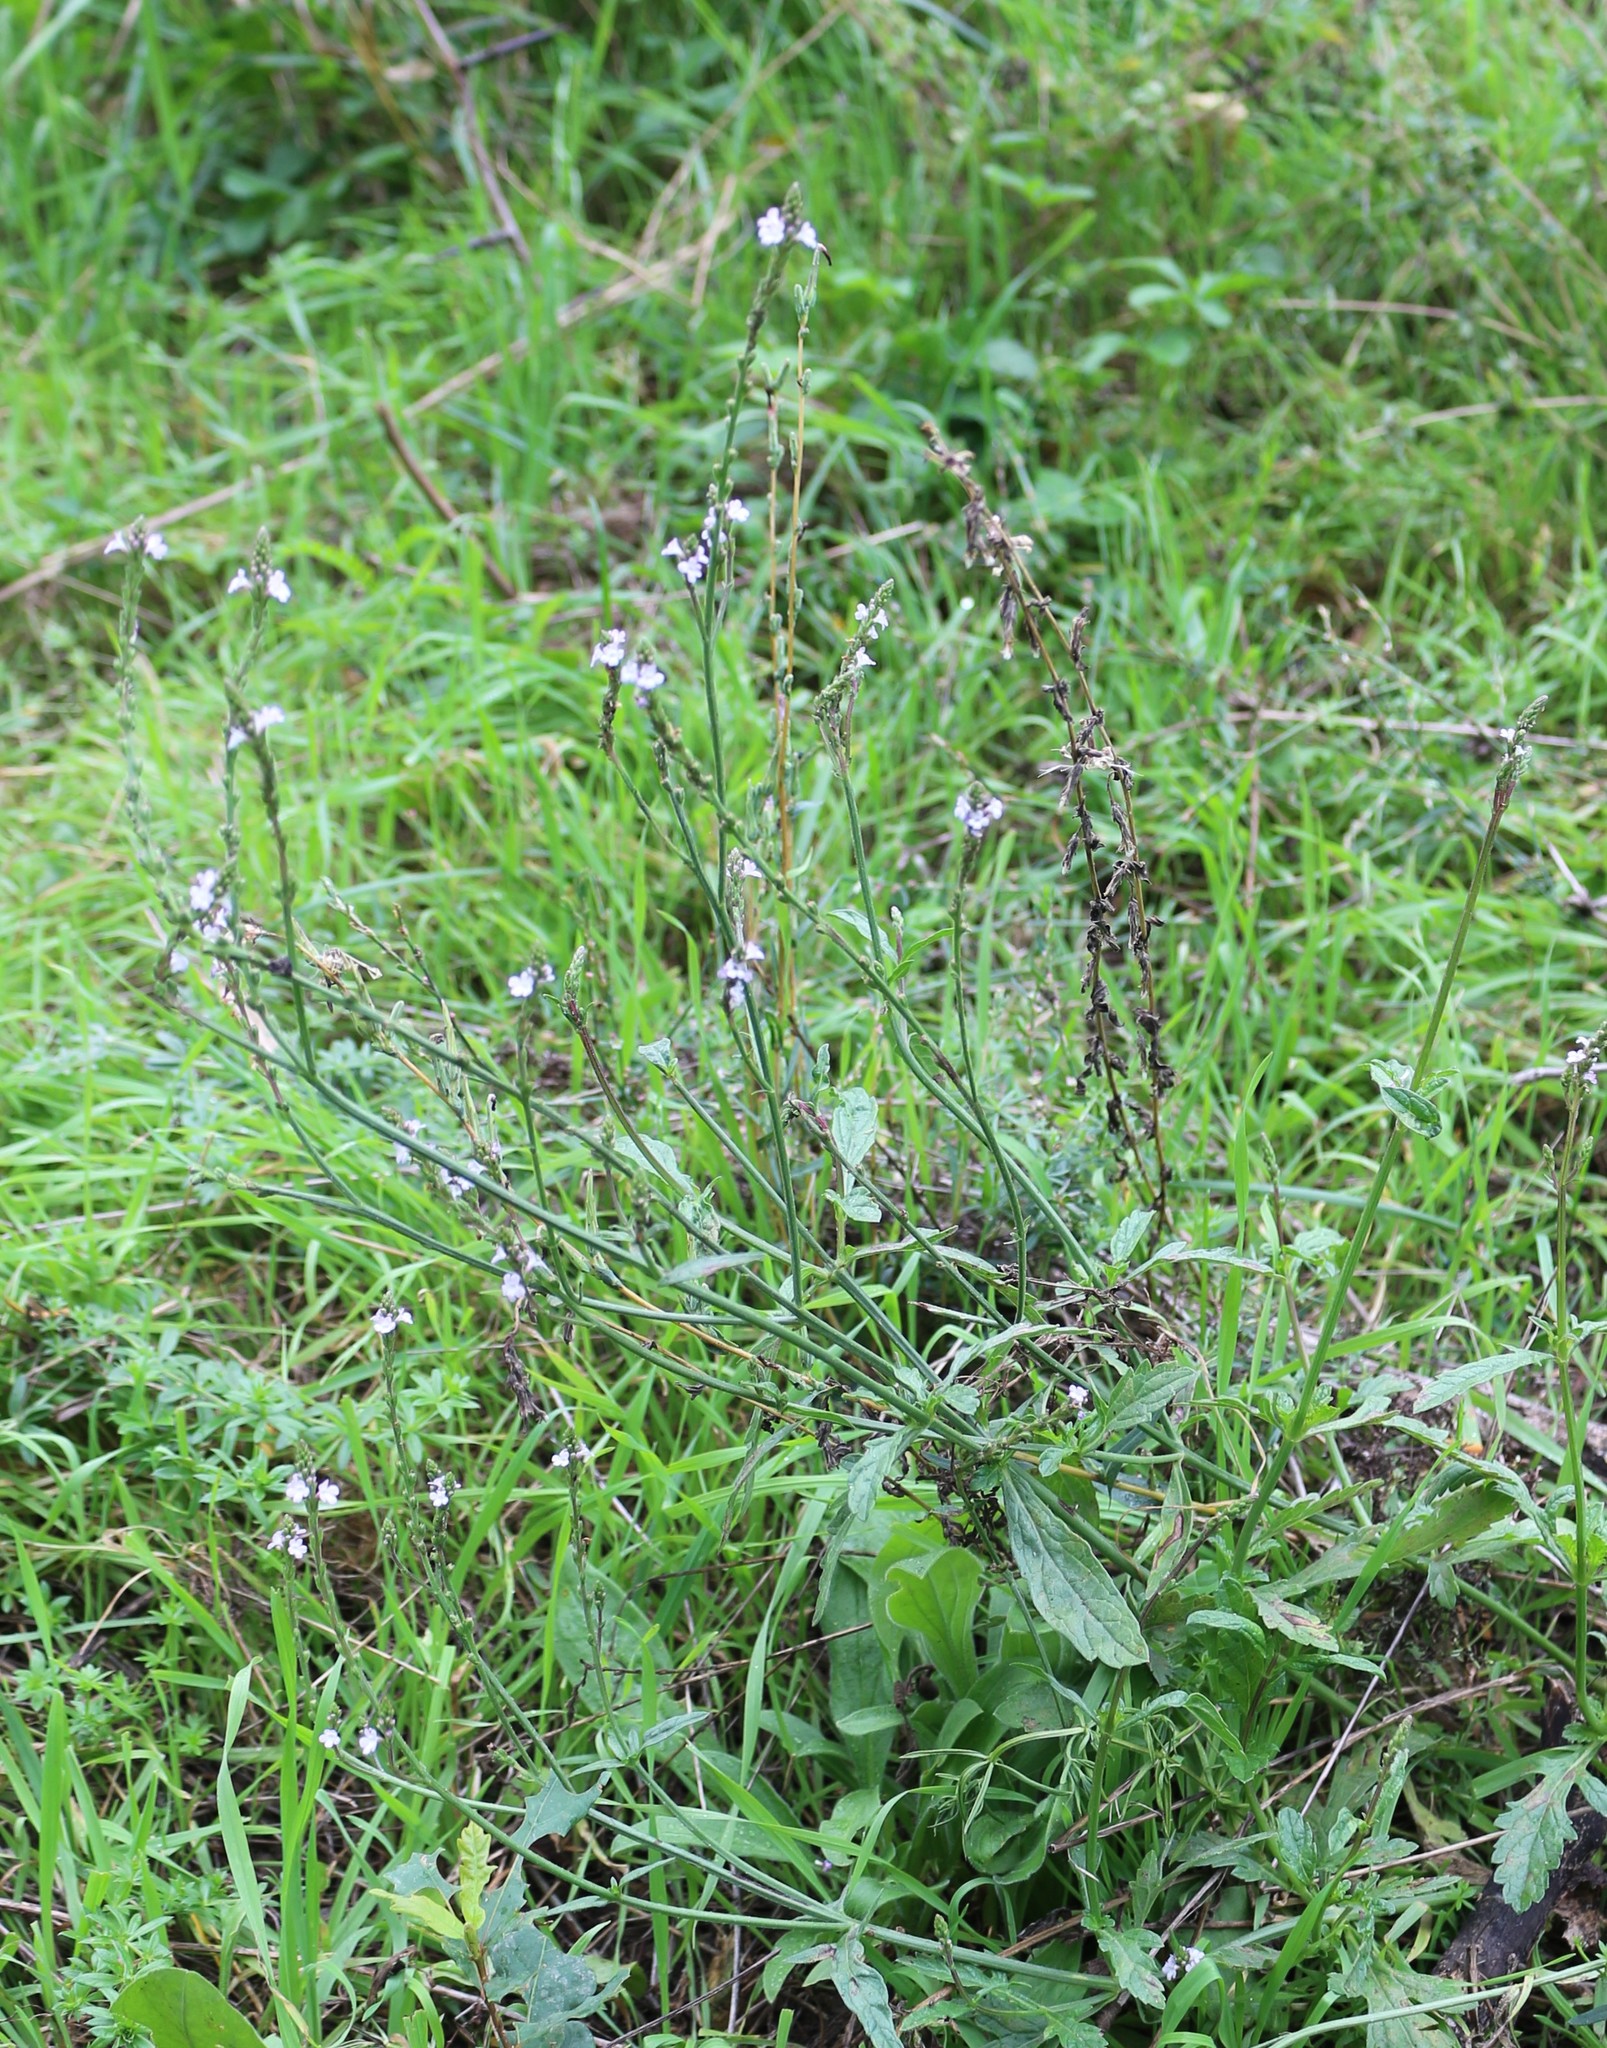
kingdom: Plantae
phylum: Tracheophyta
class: Magnoliopsida
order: Lamiales
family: Verbenaceae
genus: Verbena
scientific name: Verbena officinalis
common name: Vervain
